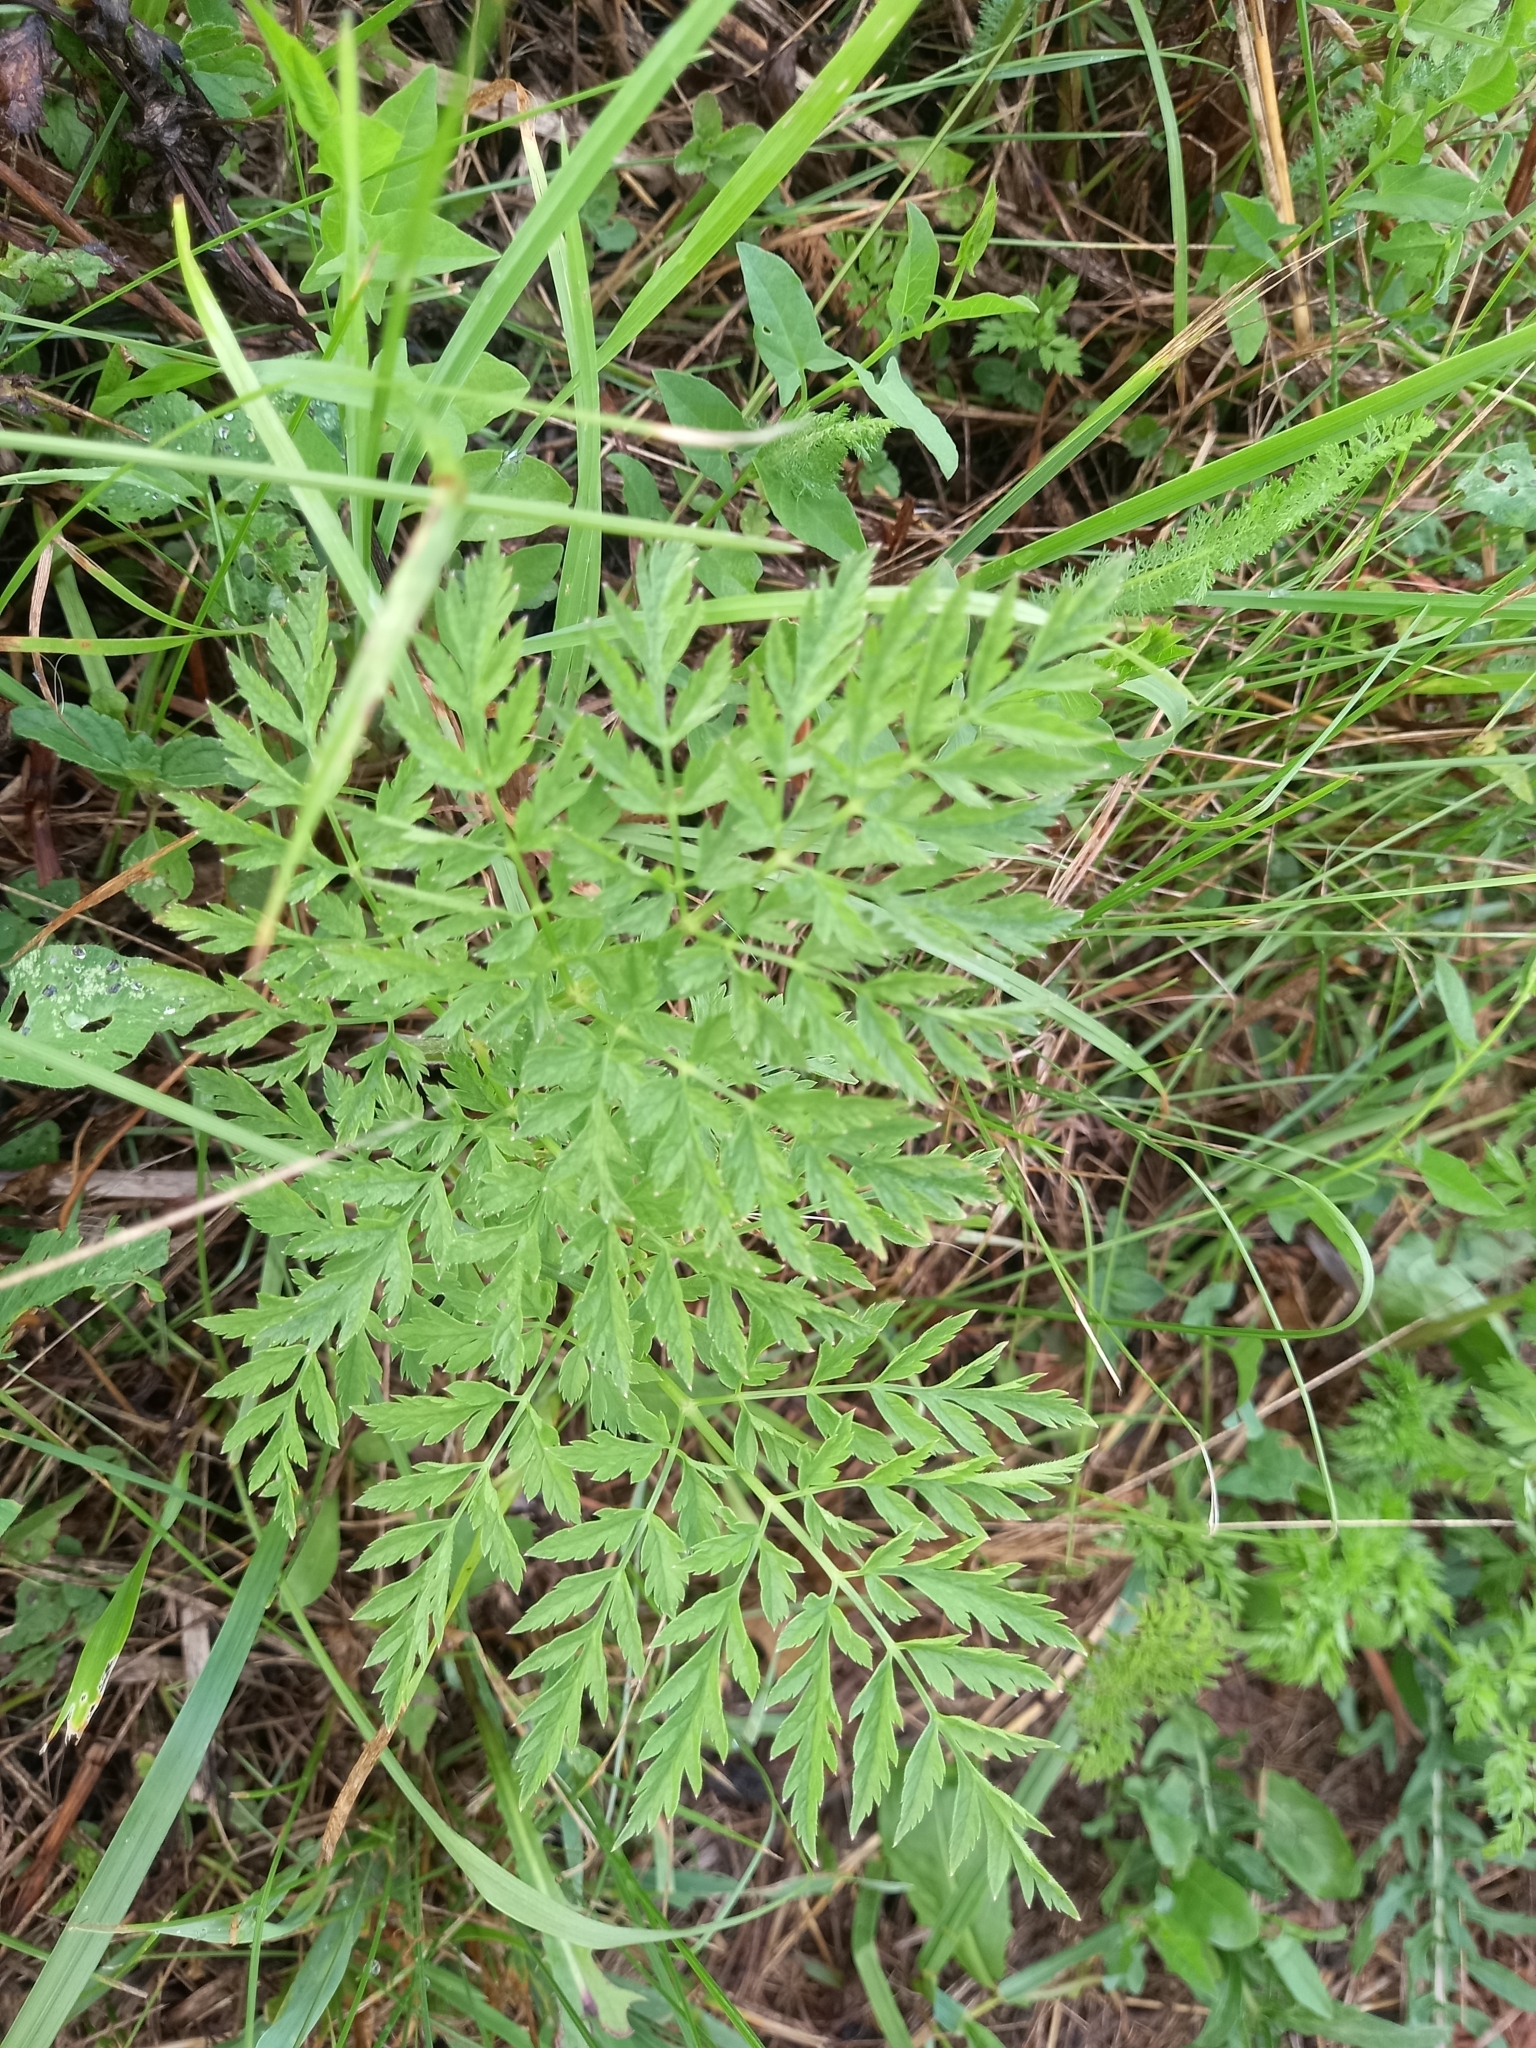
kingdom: Plantae
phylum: Tracheophyta
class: Magnoliopsida
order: Apiales
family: Apiaceae
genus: Anthriscus
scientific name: Anthriscus sylvestris
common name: Cow parsley
